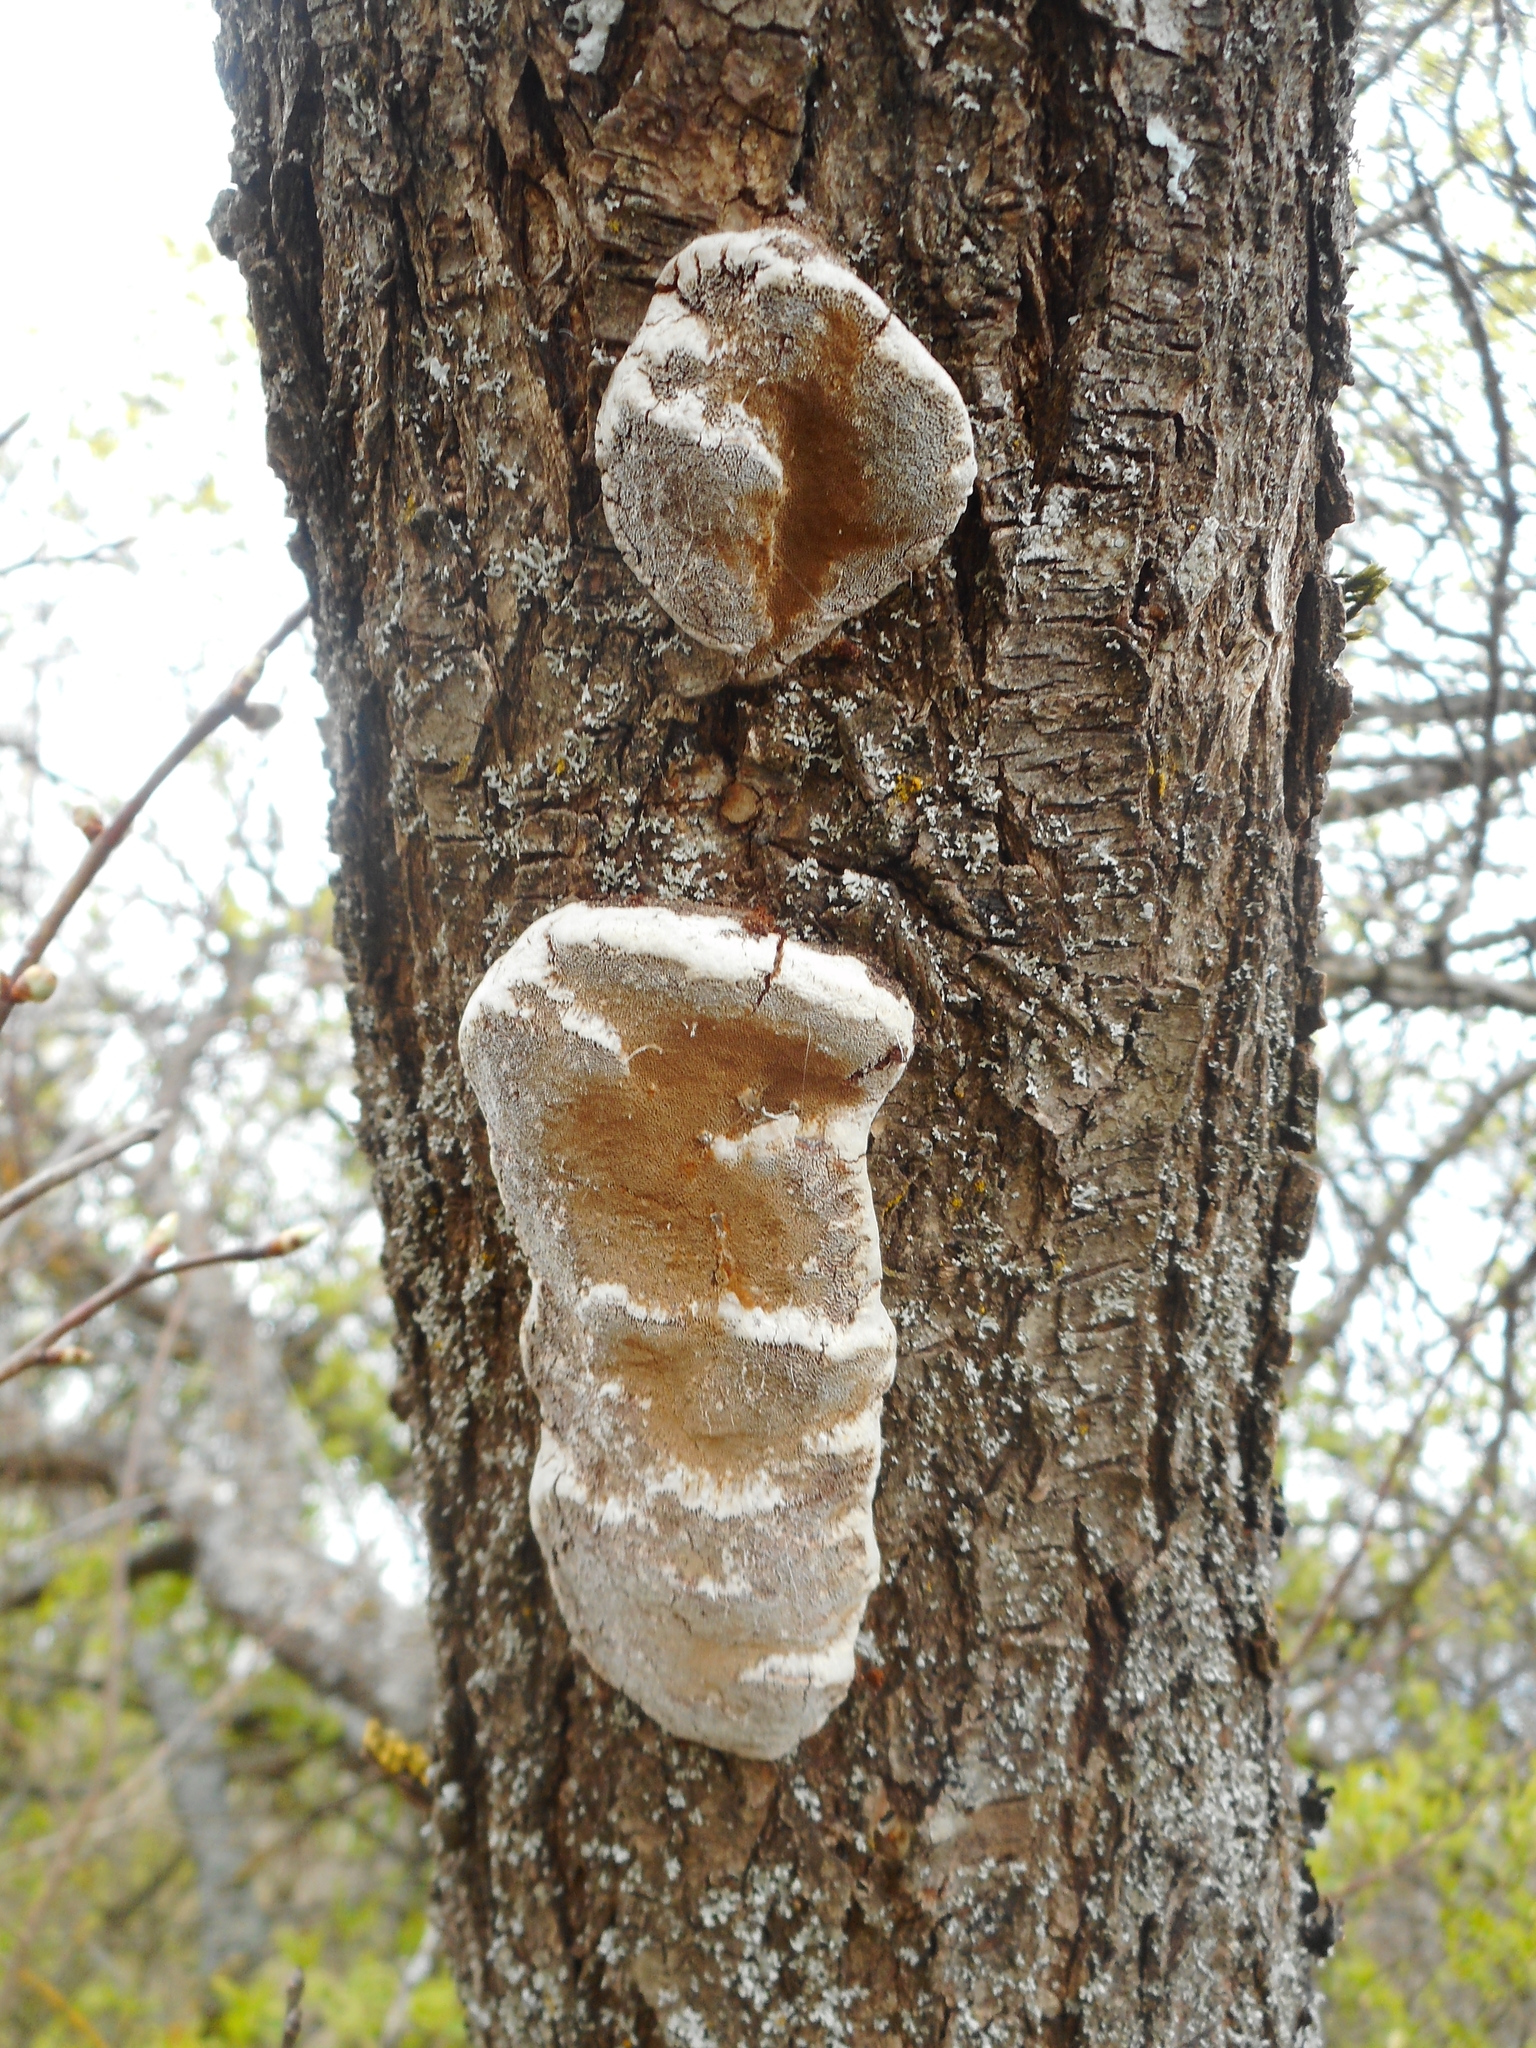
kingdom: Fungi
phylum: Basidiomycota
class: Agaricomycetes
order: Hymenochaetales
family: Hymenochaetaceae
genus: Phellinus
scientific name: Phellinus pomaceus
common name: Cushion bracket
